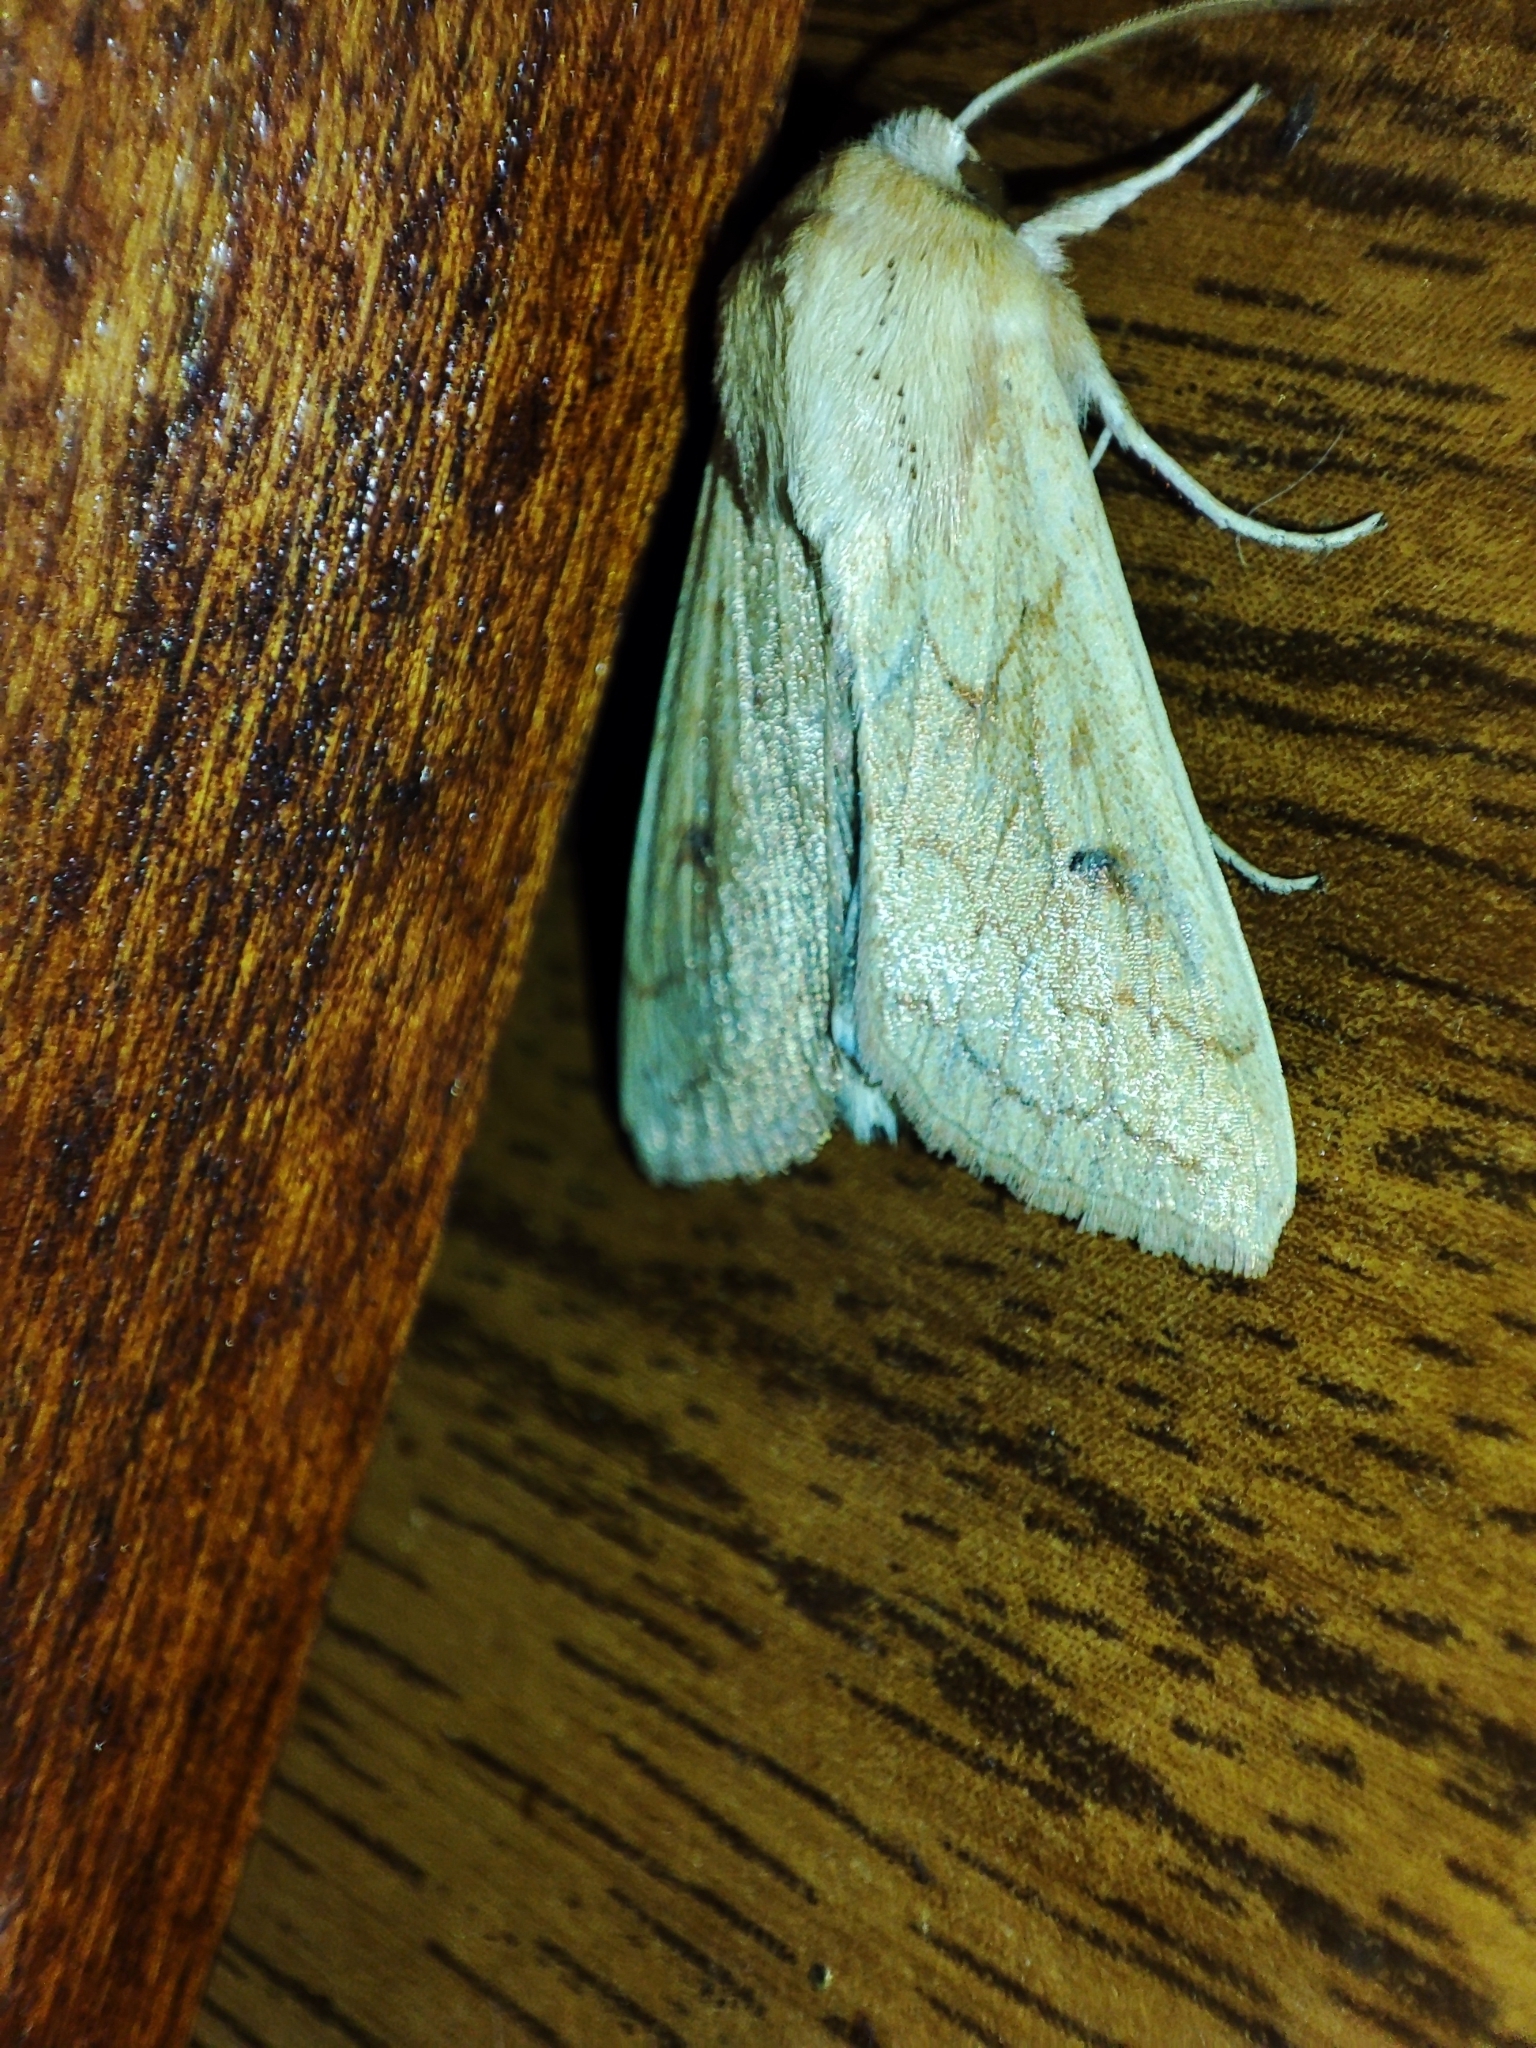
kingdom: Animalia
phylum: Arthropoda
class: Insecta
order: Lepidoptera
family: Noctuidae
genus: Mythimna
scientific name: Mythimna vitellina
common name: Delicate
